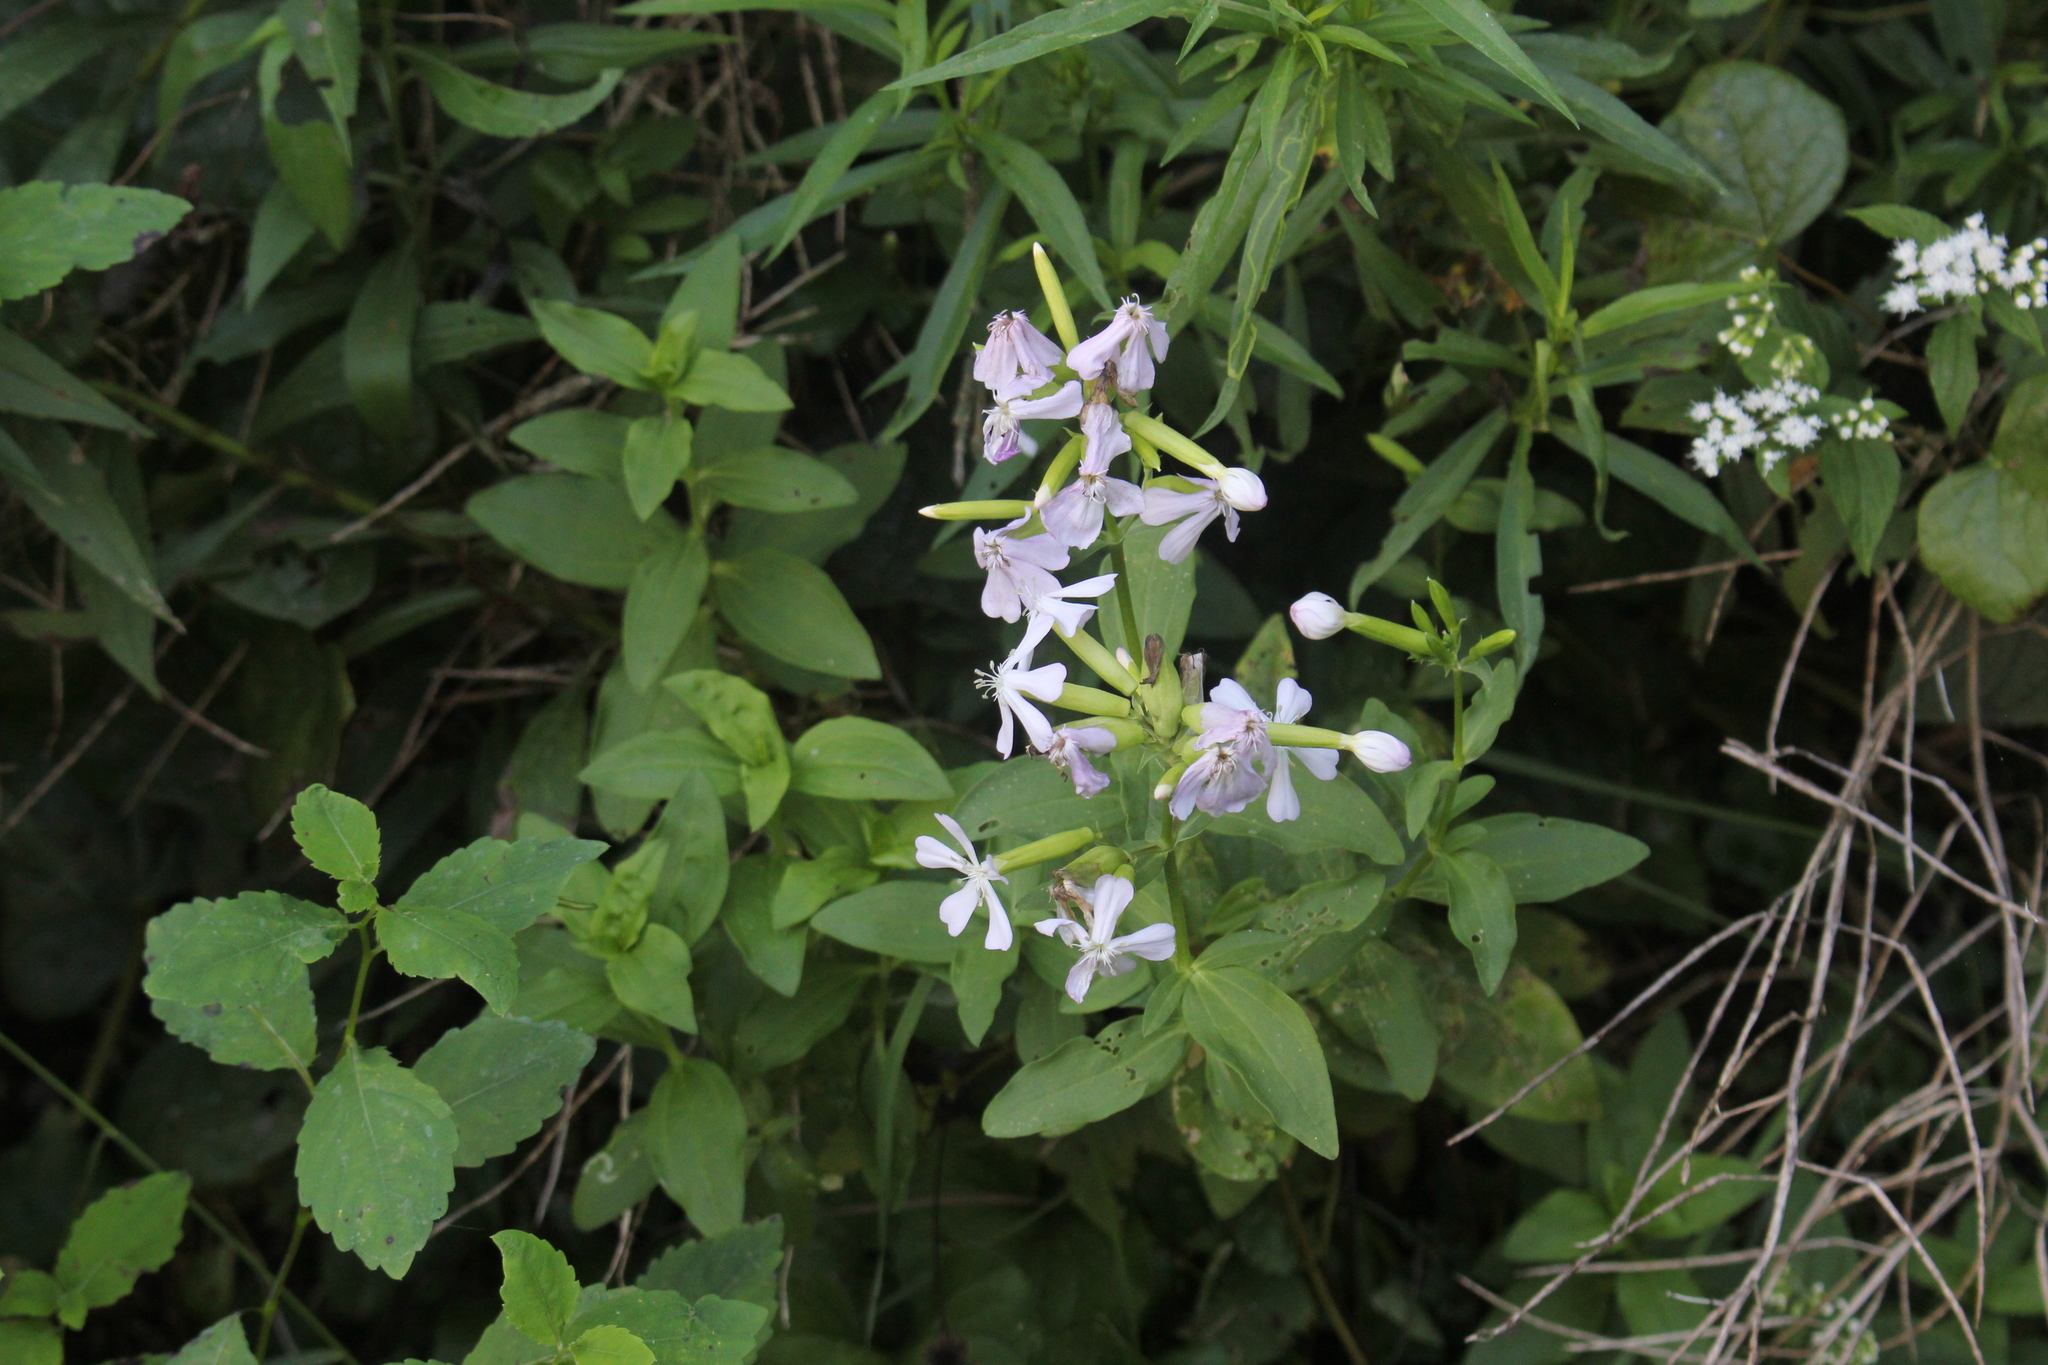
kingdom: Plantae
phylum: Tracheophyta
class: Magnoliopsida
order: Caryophyllales
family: Caryophyllaceae
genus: Saponaria
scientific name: Saponaria officinalis
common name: Soapwort
